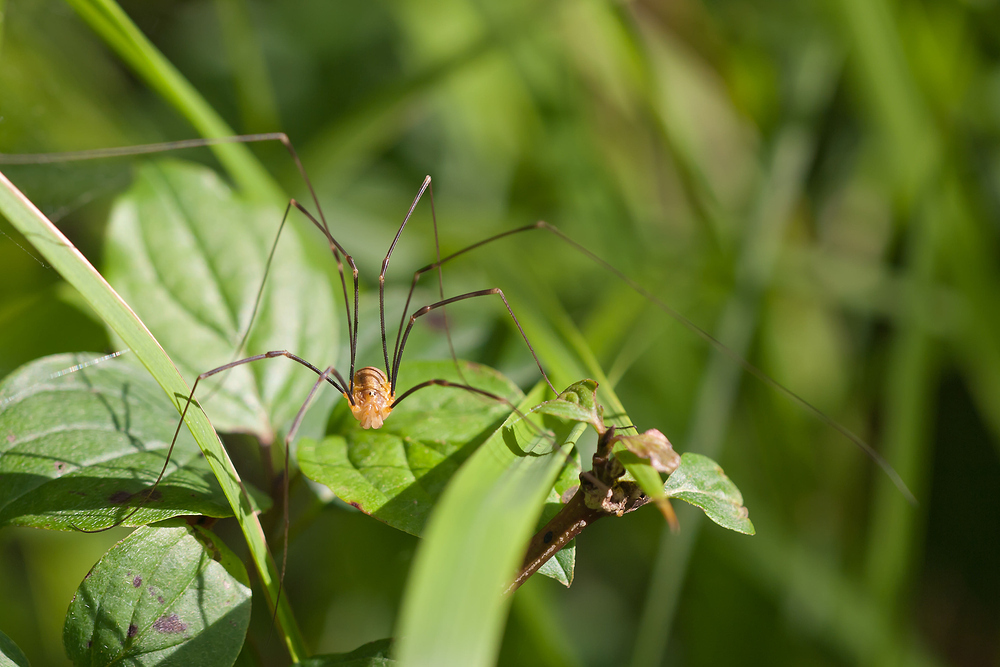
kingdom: Animalia
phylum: Arthropoda
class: Arachnida
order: Opiliones
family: Phalangiidae
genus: Opilio
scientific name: Opilio canestrinii
